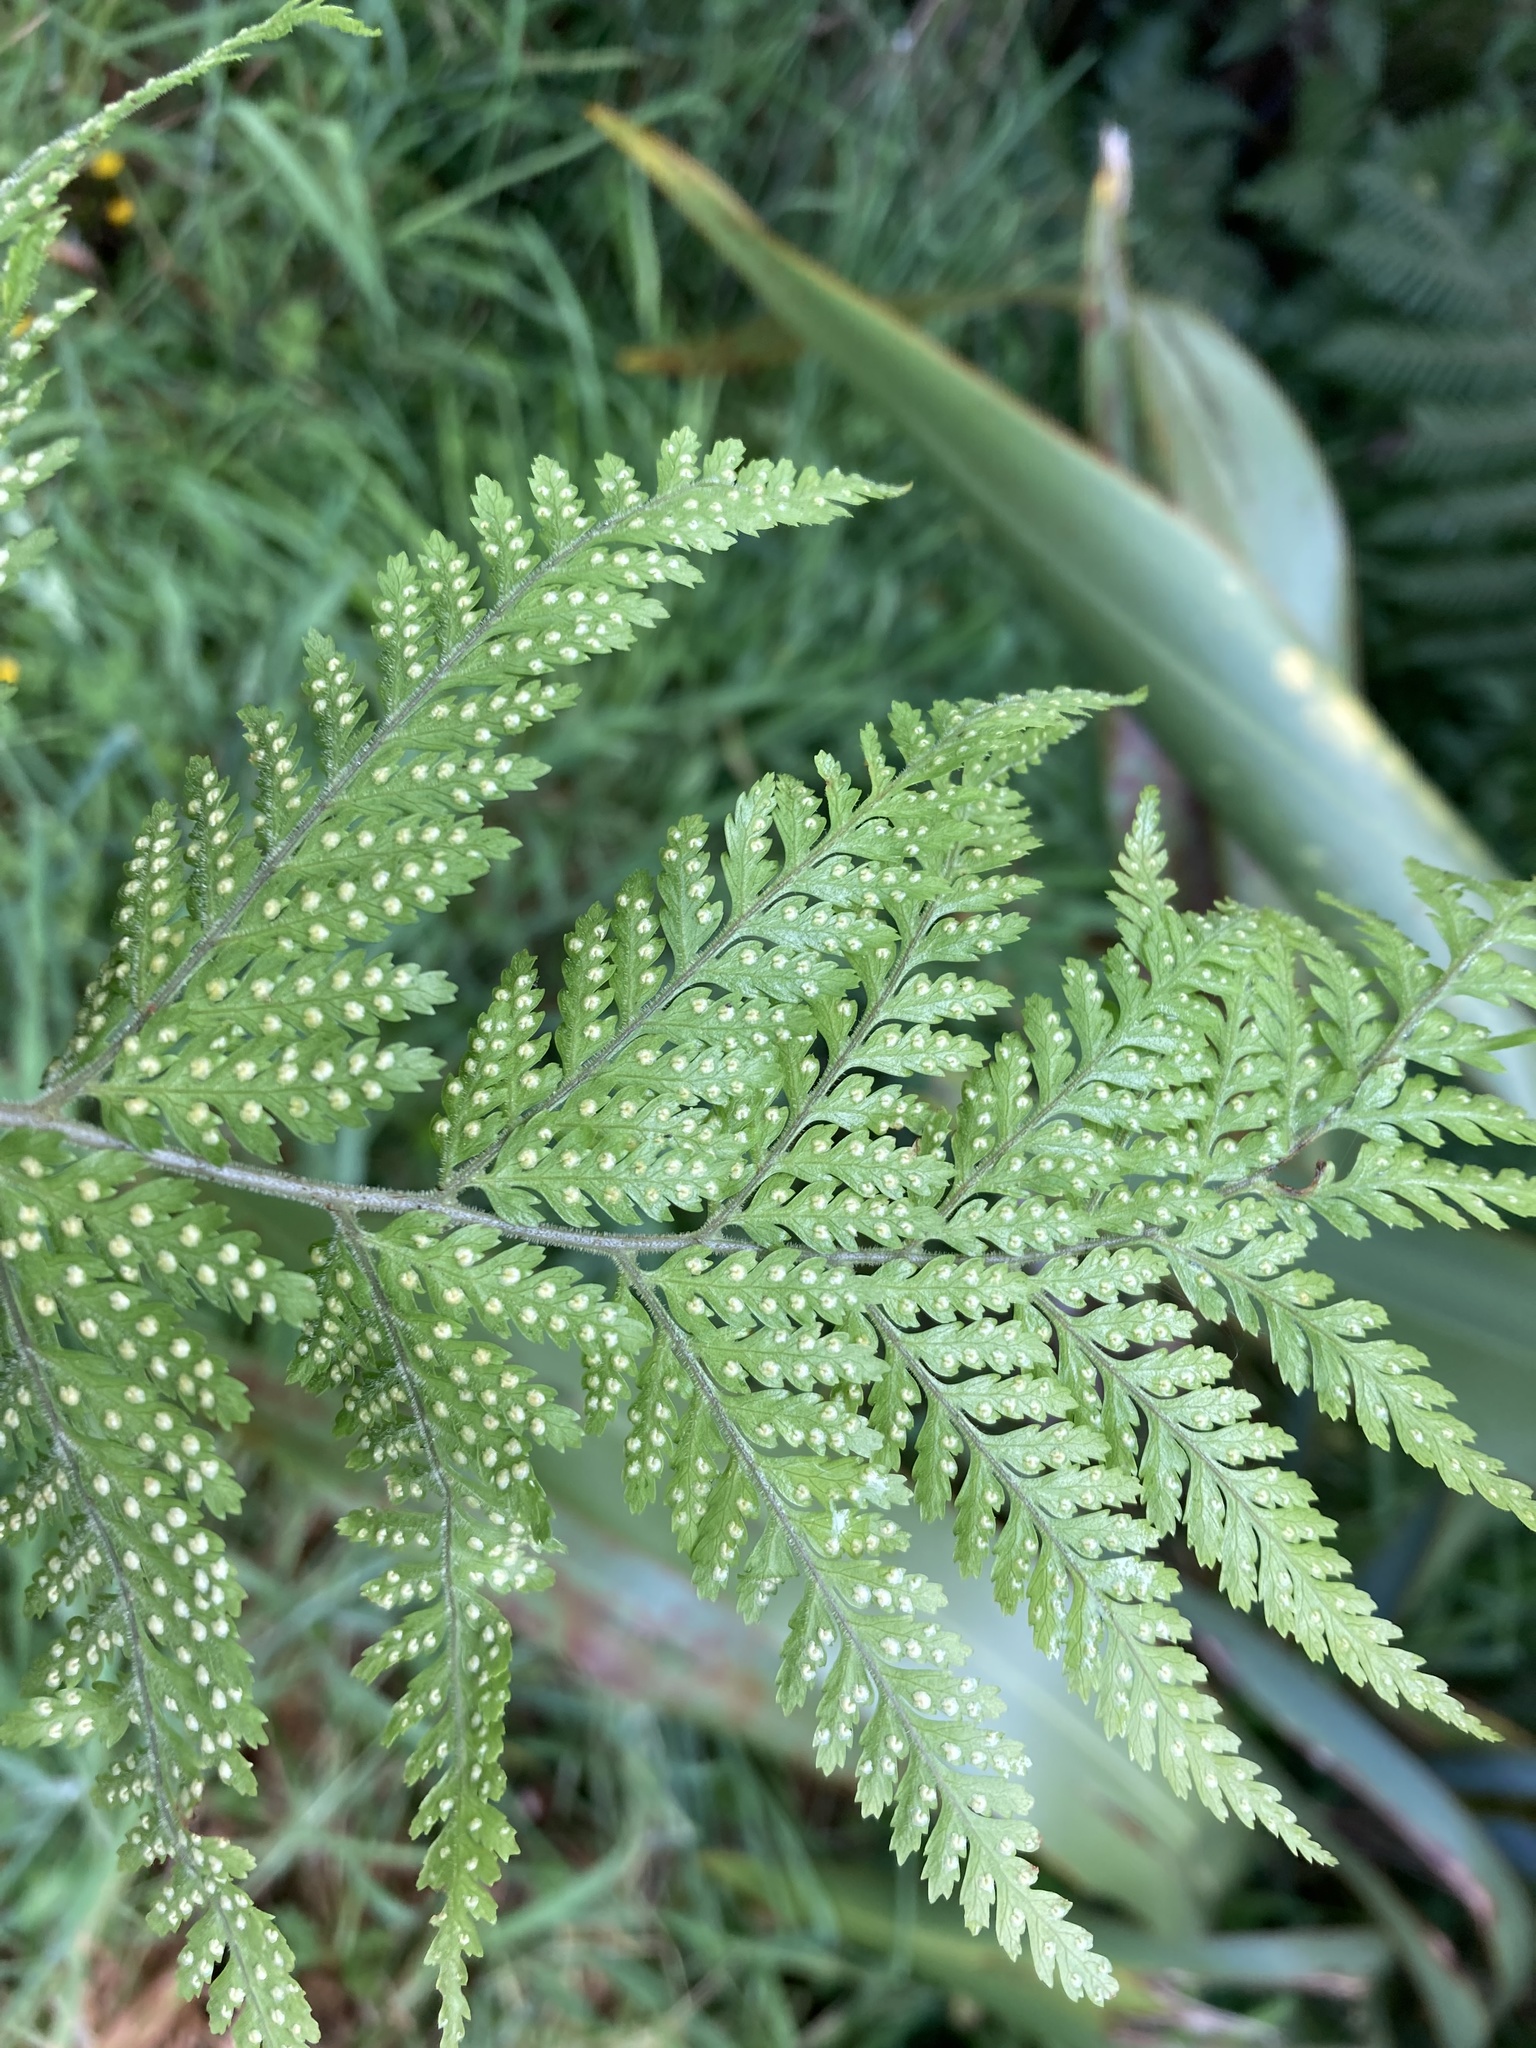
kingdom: Plantae
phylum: Tracheophyta
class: Polypodiopsida
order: Polypodiales
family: Dryopteridaceae
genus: Parapolystichum
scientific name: Parapolystichum microsorum
